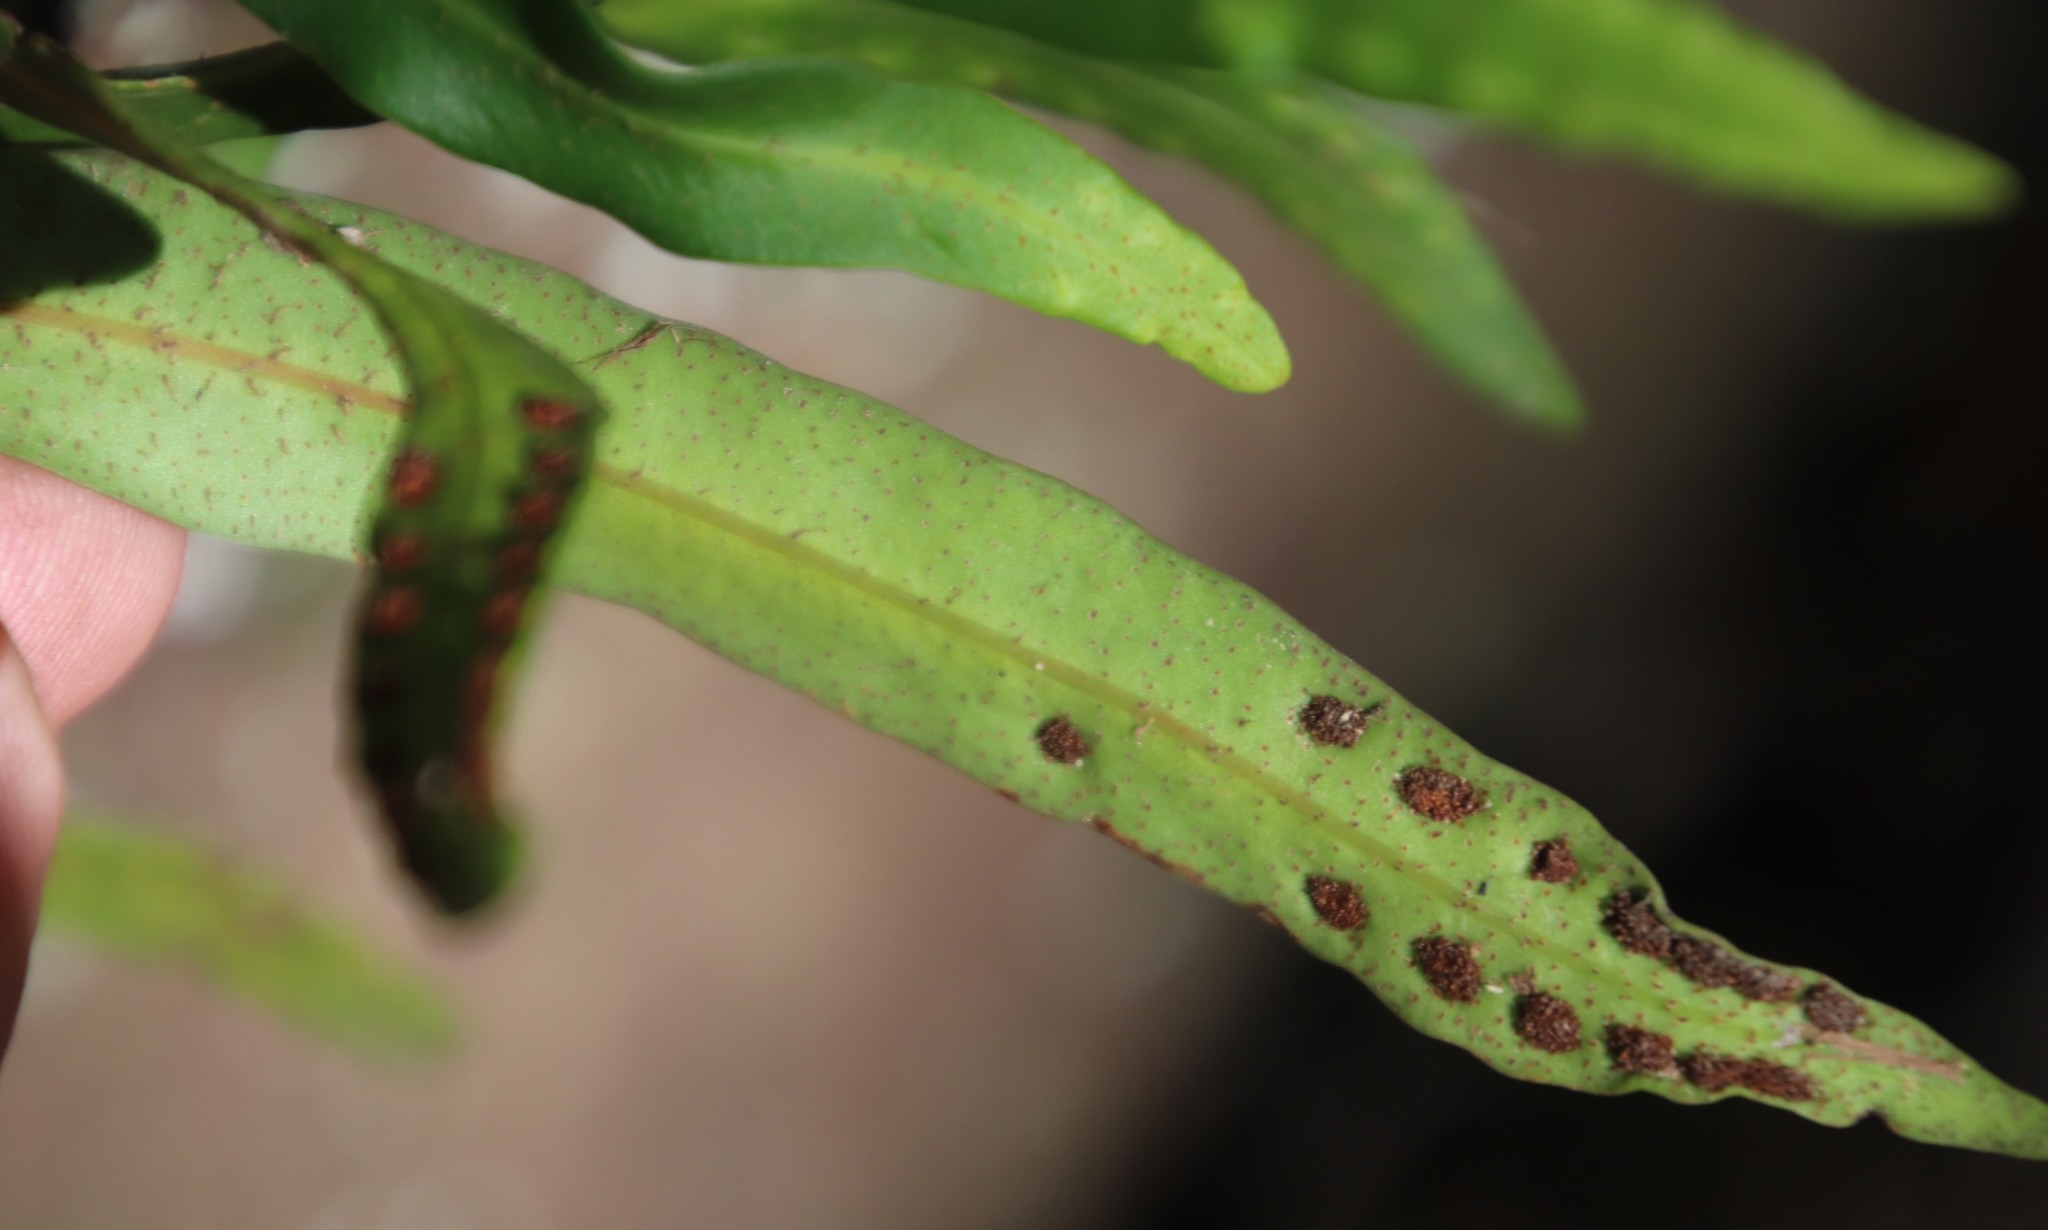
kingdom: Plantae
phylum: Tracheophyta
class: Polypodiopsida
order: Polypodiales
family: Polypodiaceae
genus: Pleopeltis
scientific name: Pleopeltis macrocarpa
